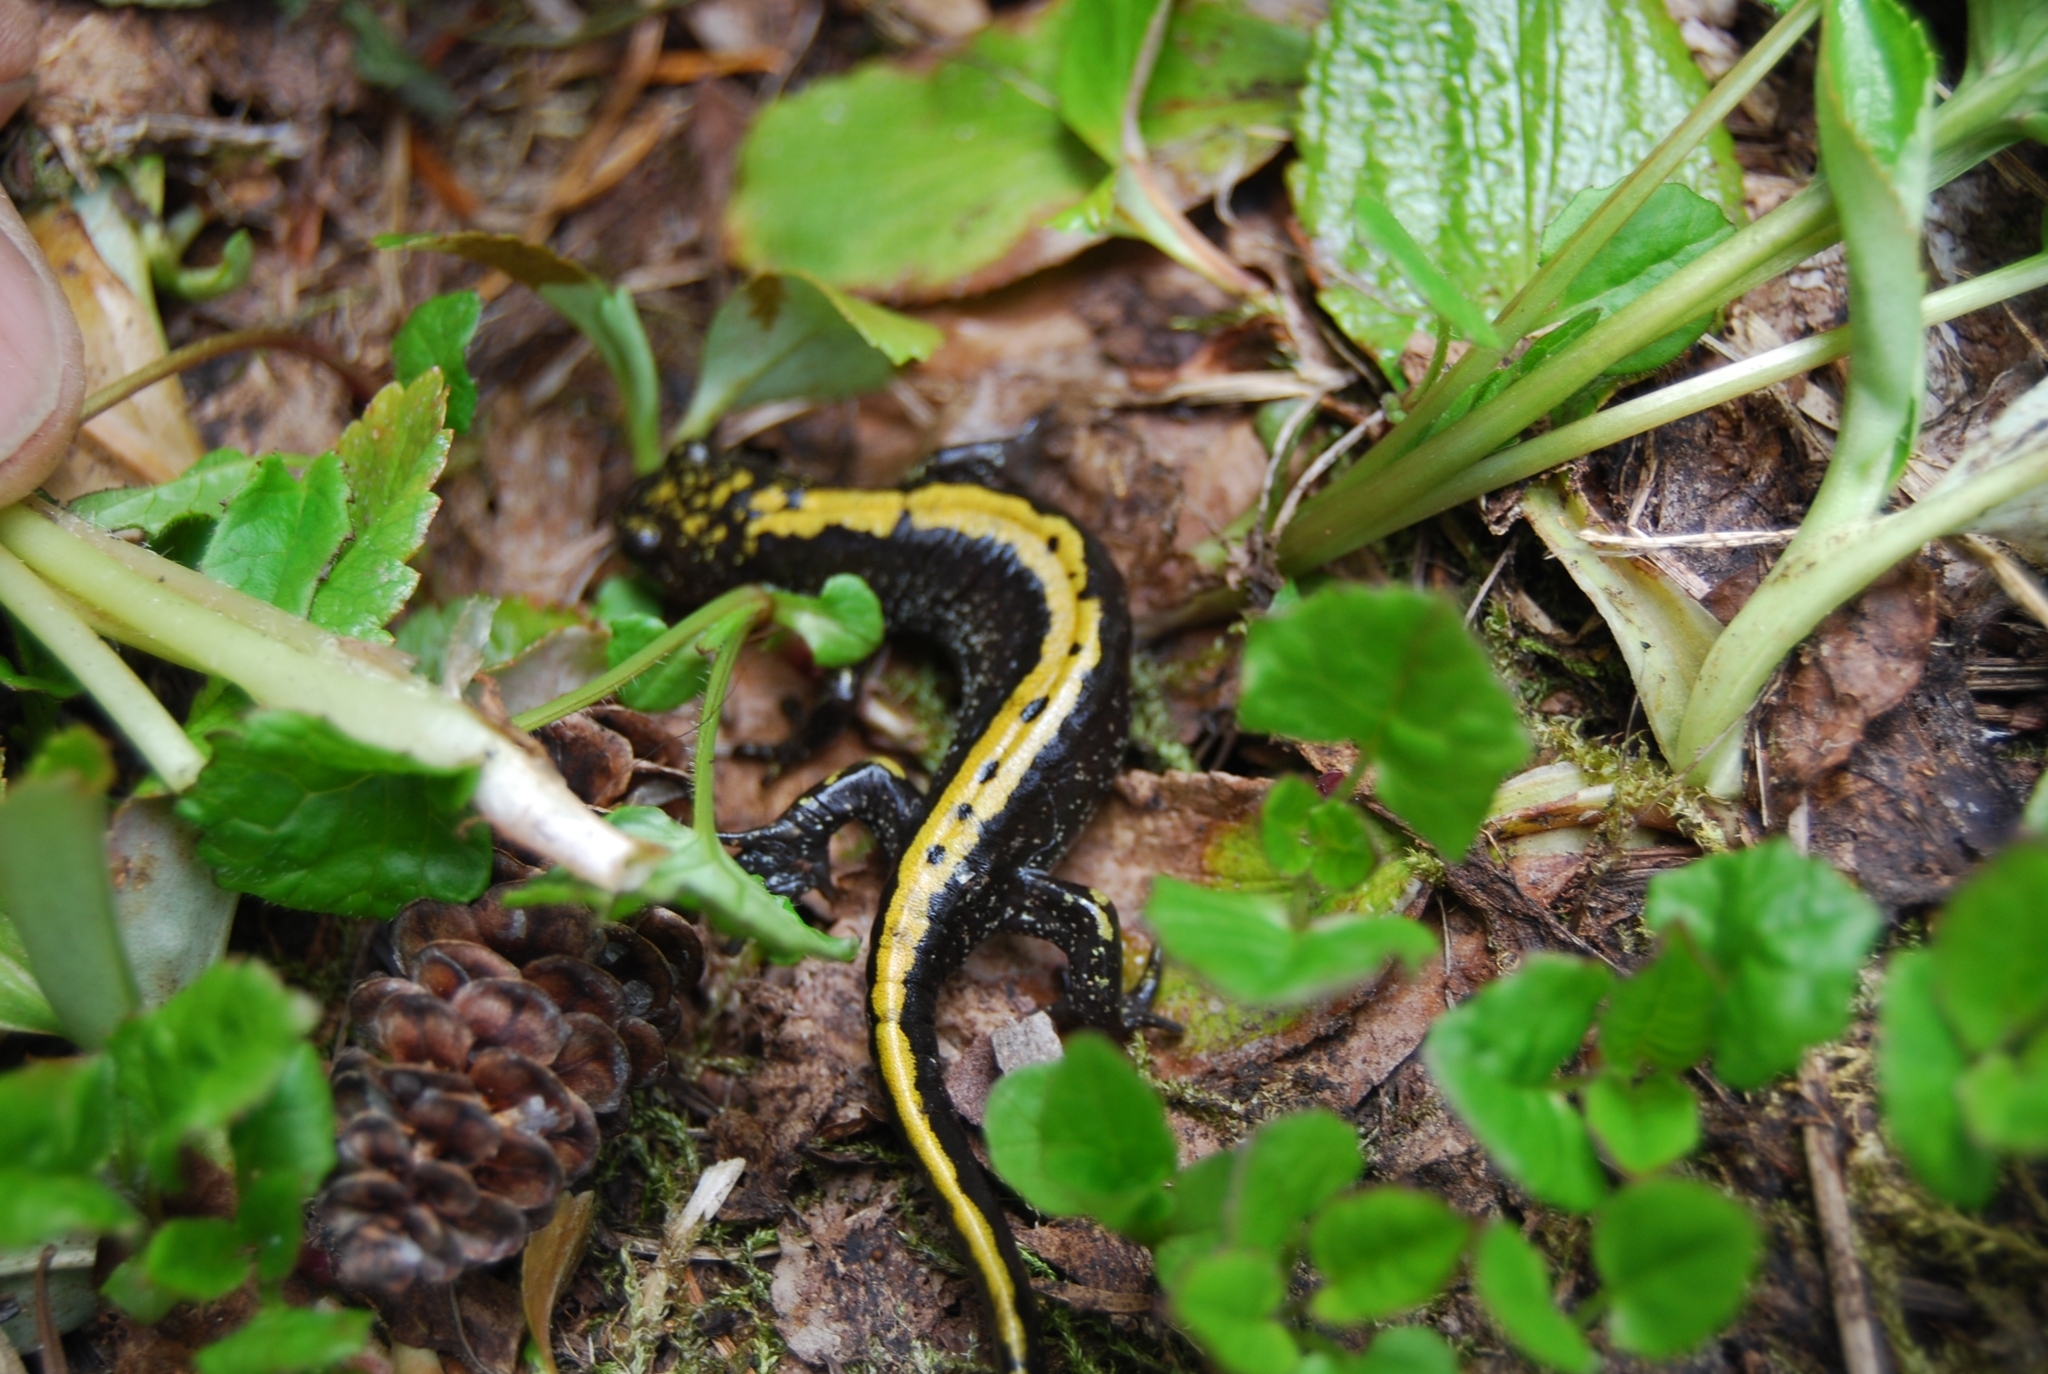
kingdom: Animalia
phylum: Chordata
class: Amphibia
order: Caudata
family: Ambystomatidae
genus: Ambystoma
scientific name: Ambystoma macrodactylum
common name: Long-toed salamander
